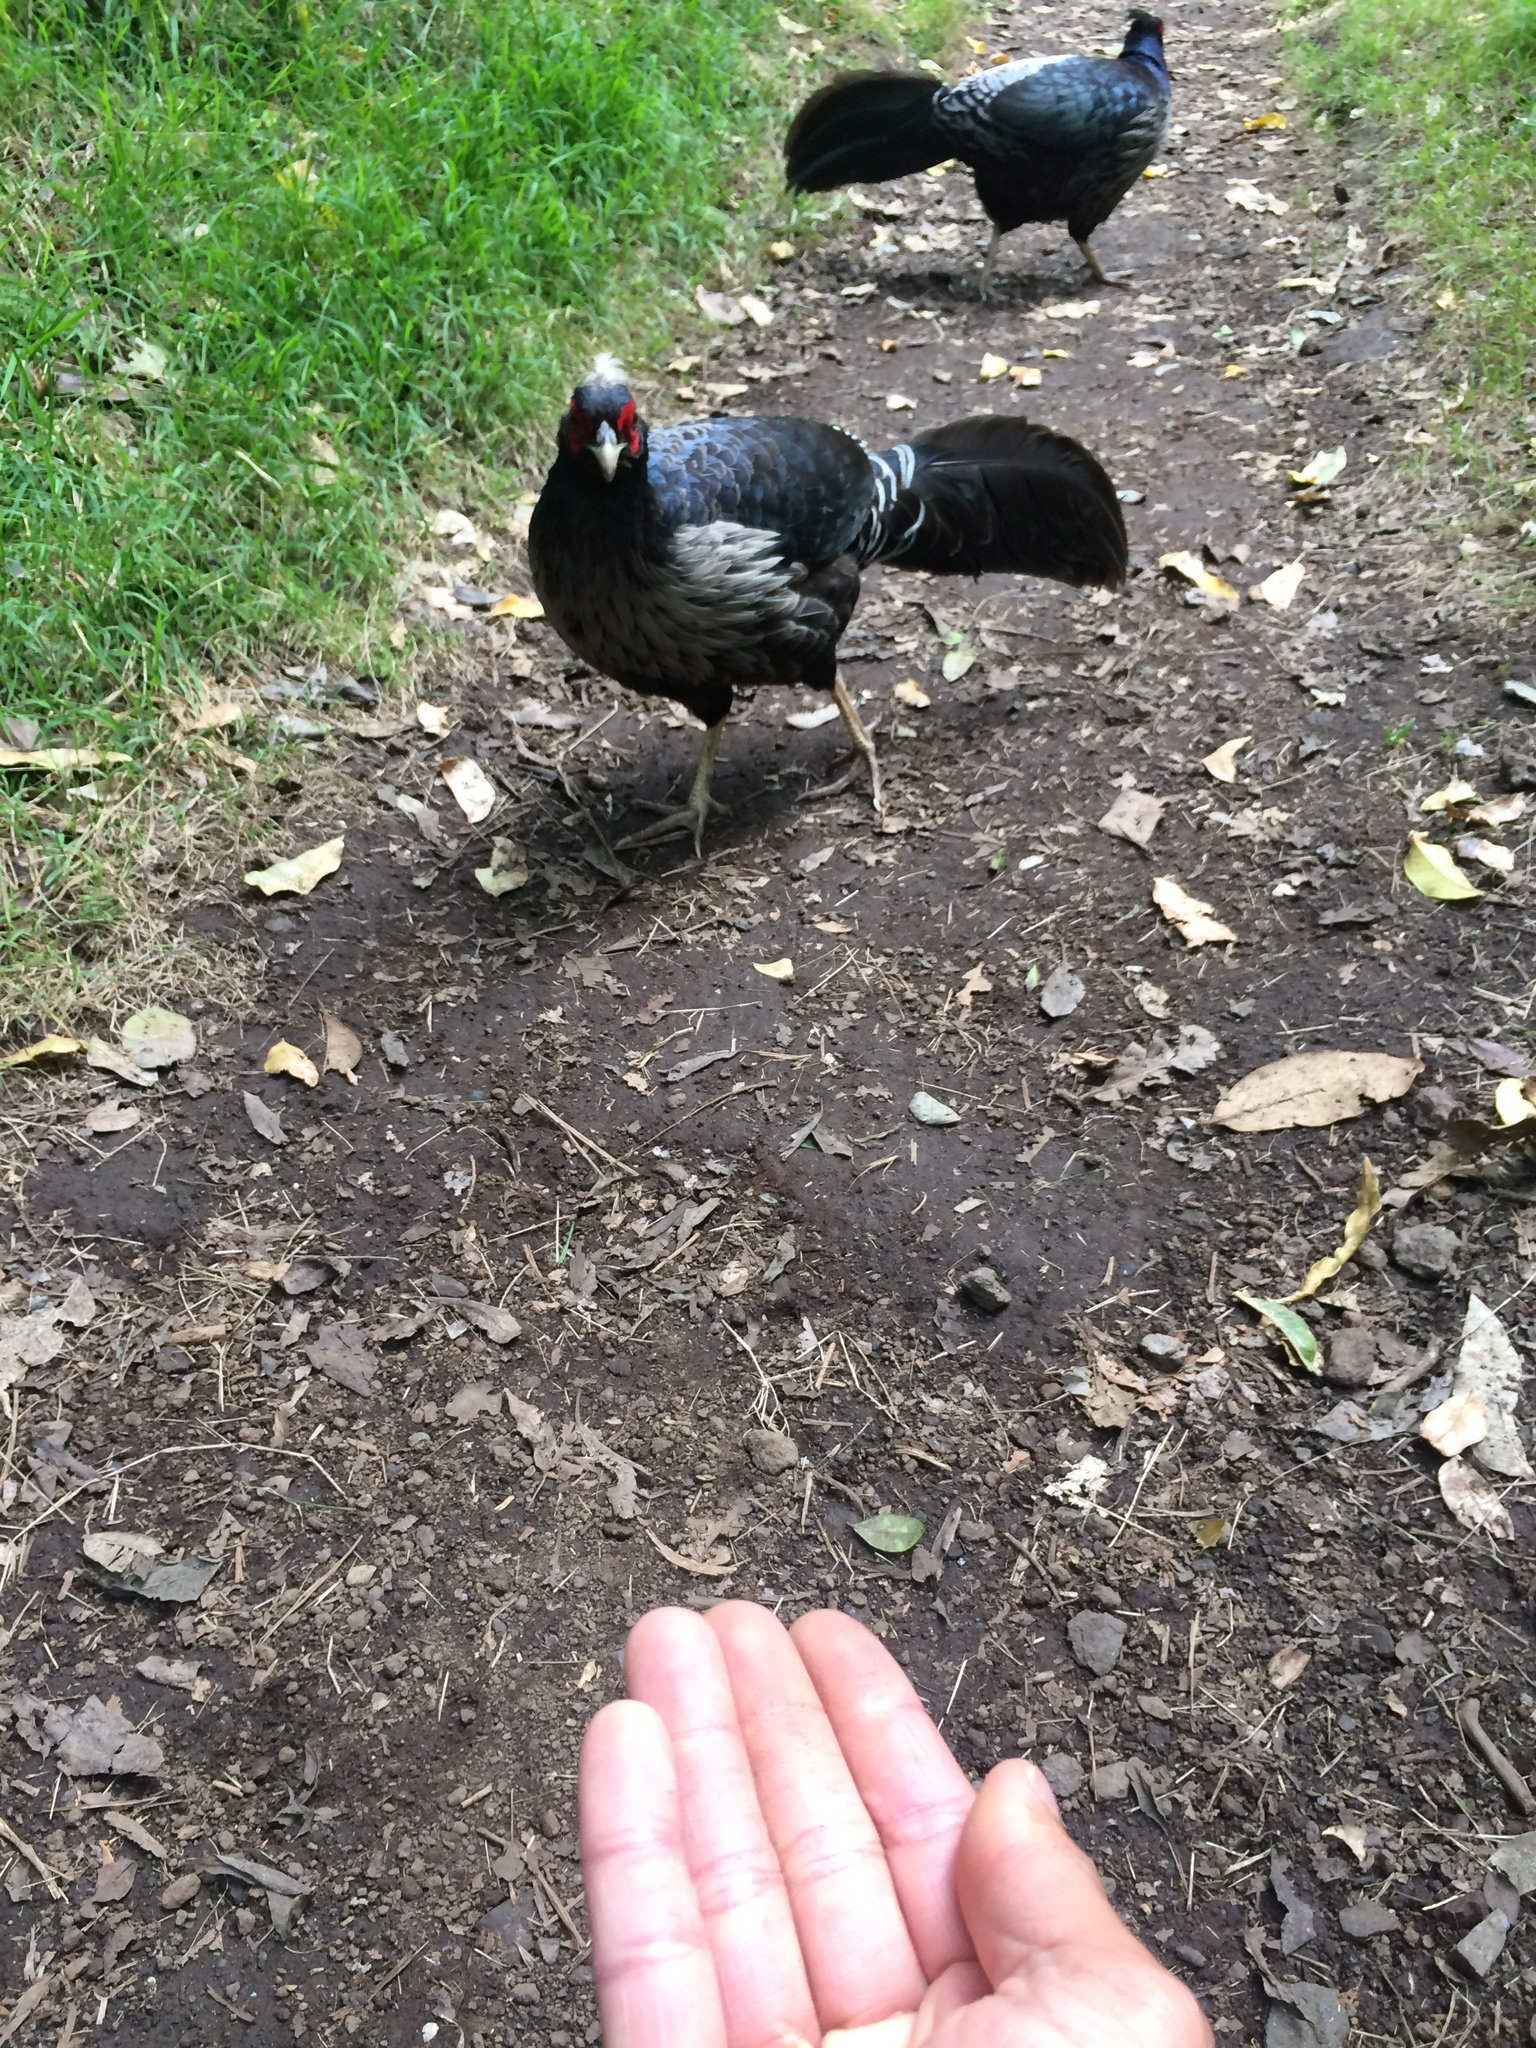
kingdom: Animalia
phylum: Chordata
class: Aves
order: Galliformes
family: Phasianidae
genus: Lophura
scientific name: Lophura leucomelanos
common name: Kalij pheasant
